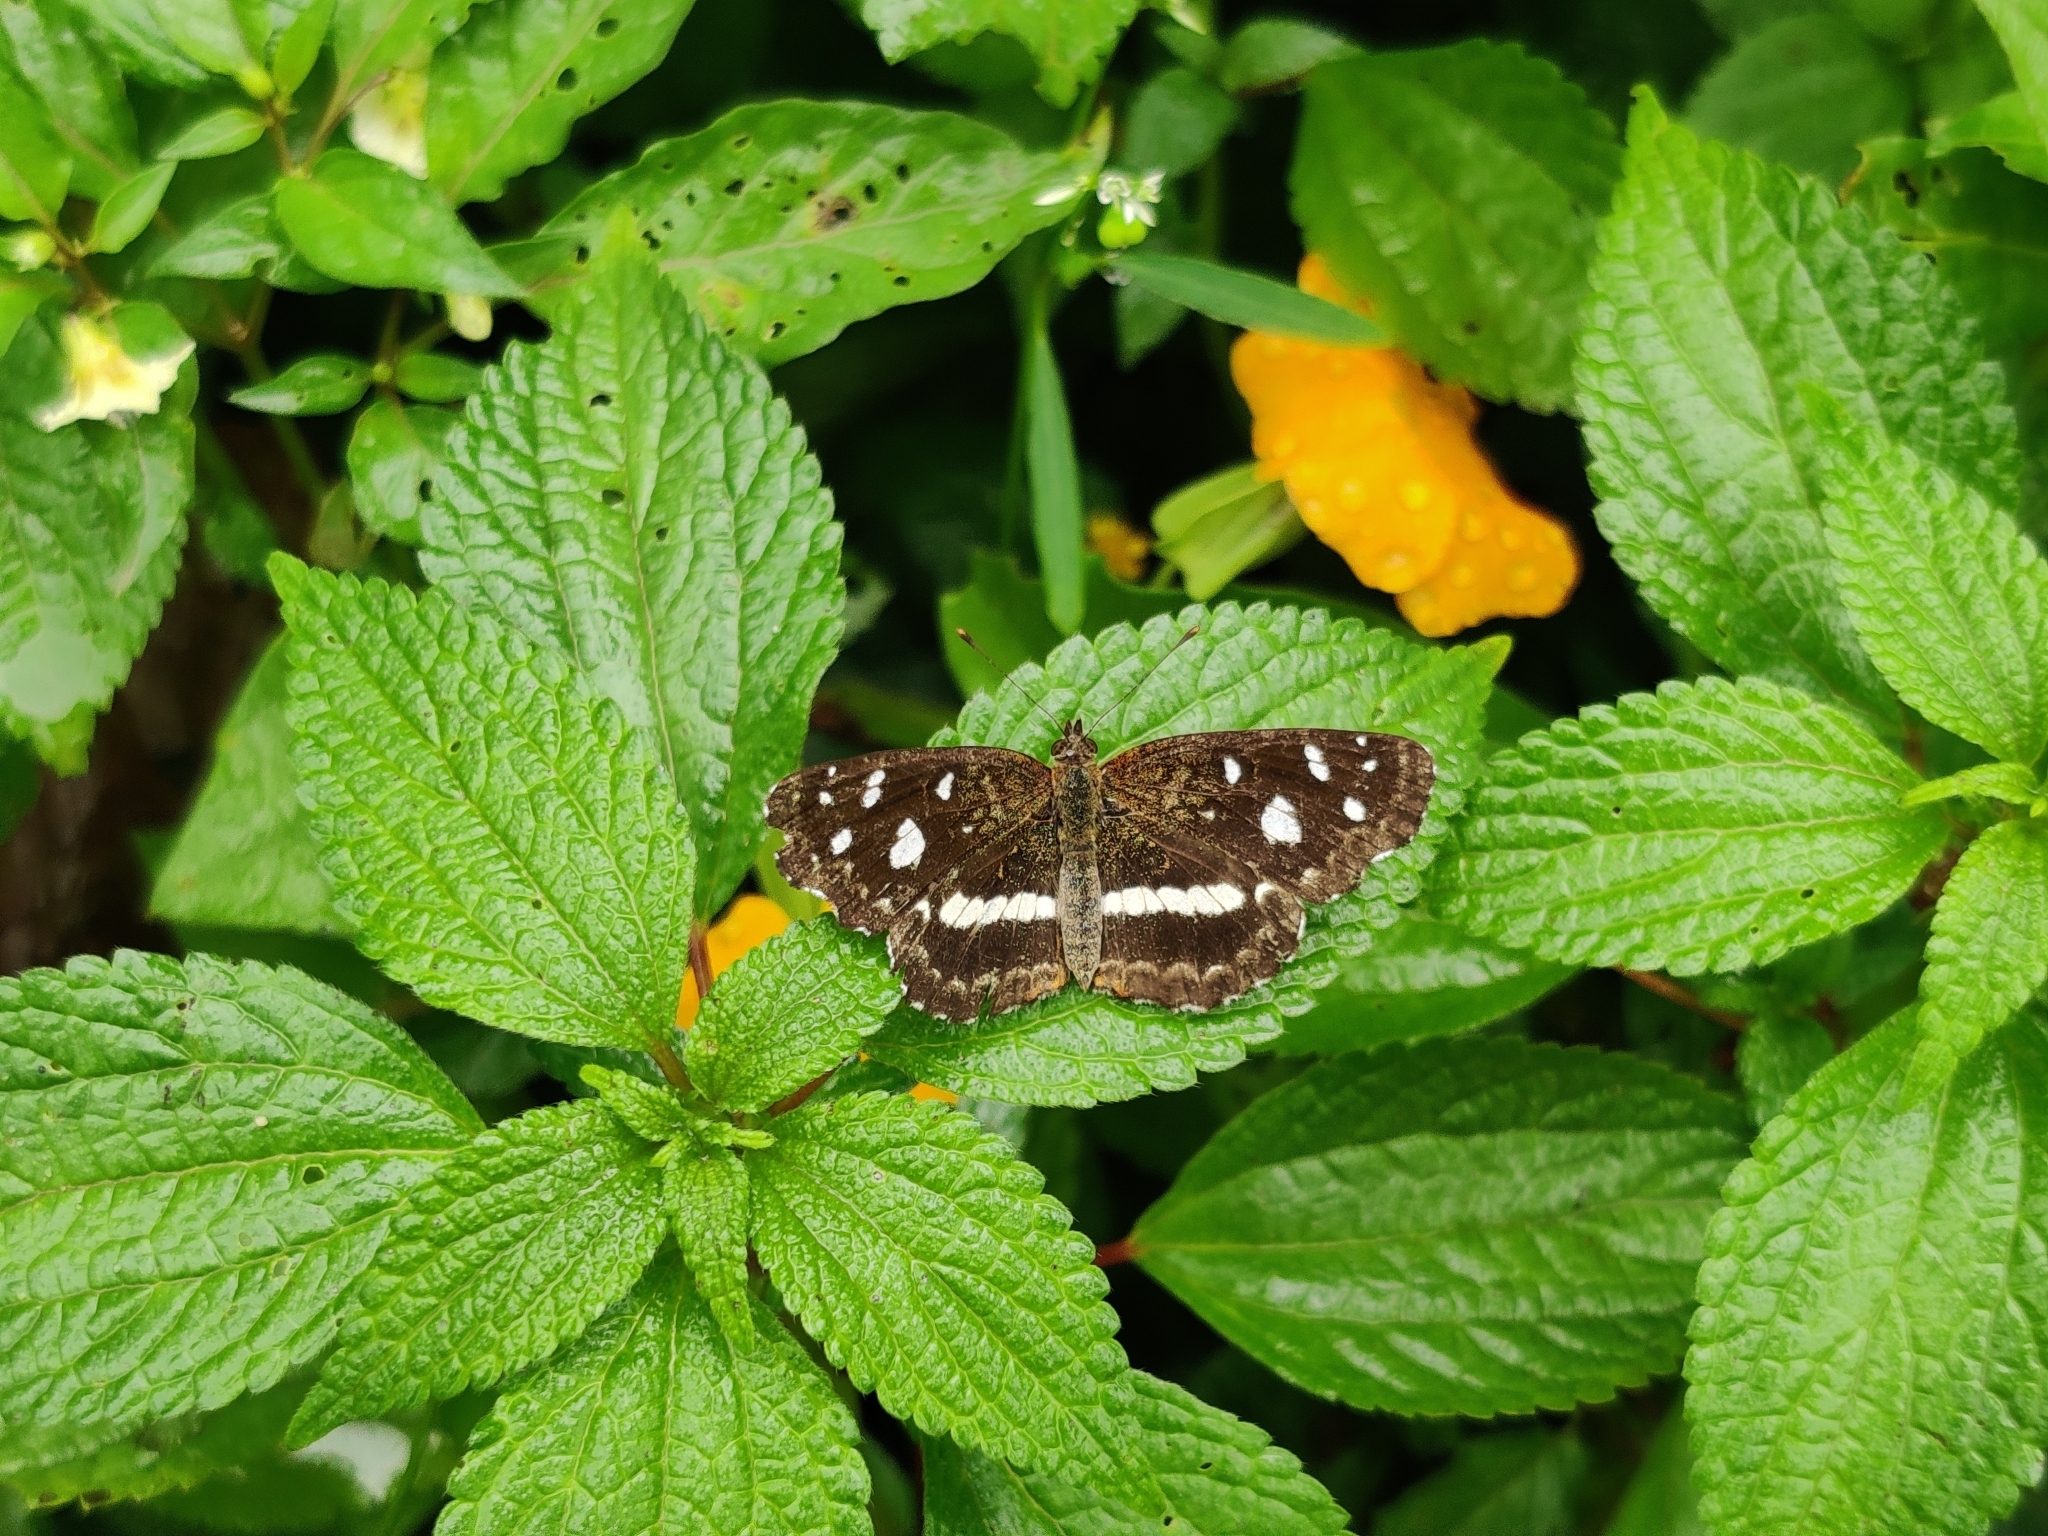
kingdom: Animalia
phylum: Arthropoda
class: Insecta
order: Lepidoptera
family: Nymphalidae
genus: Ortilia
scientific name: Ortilia ithra
